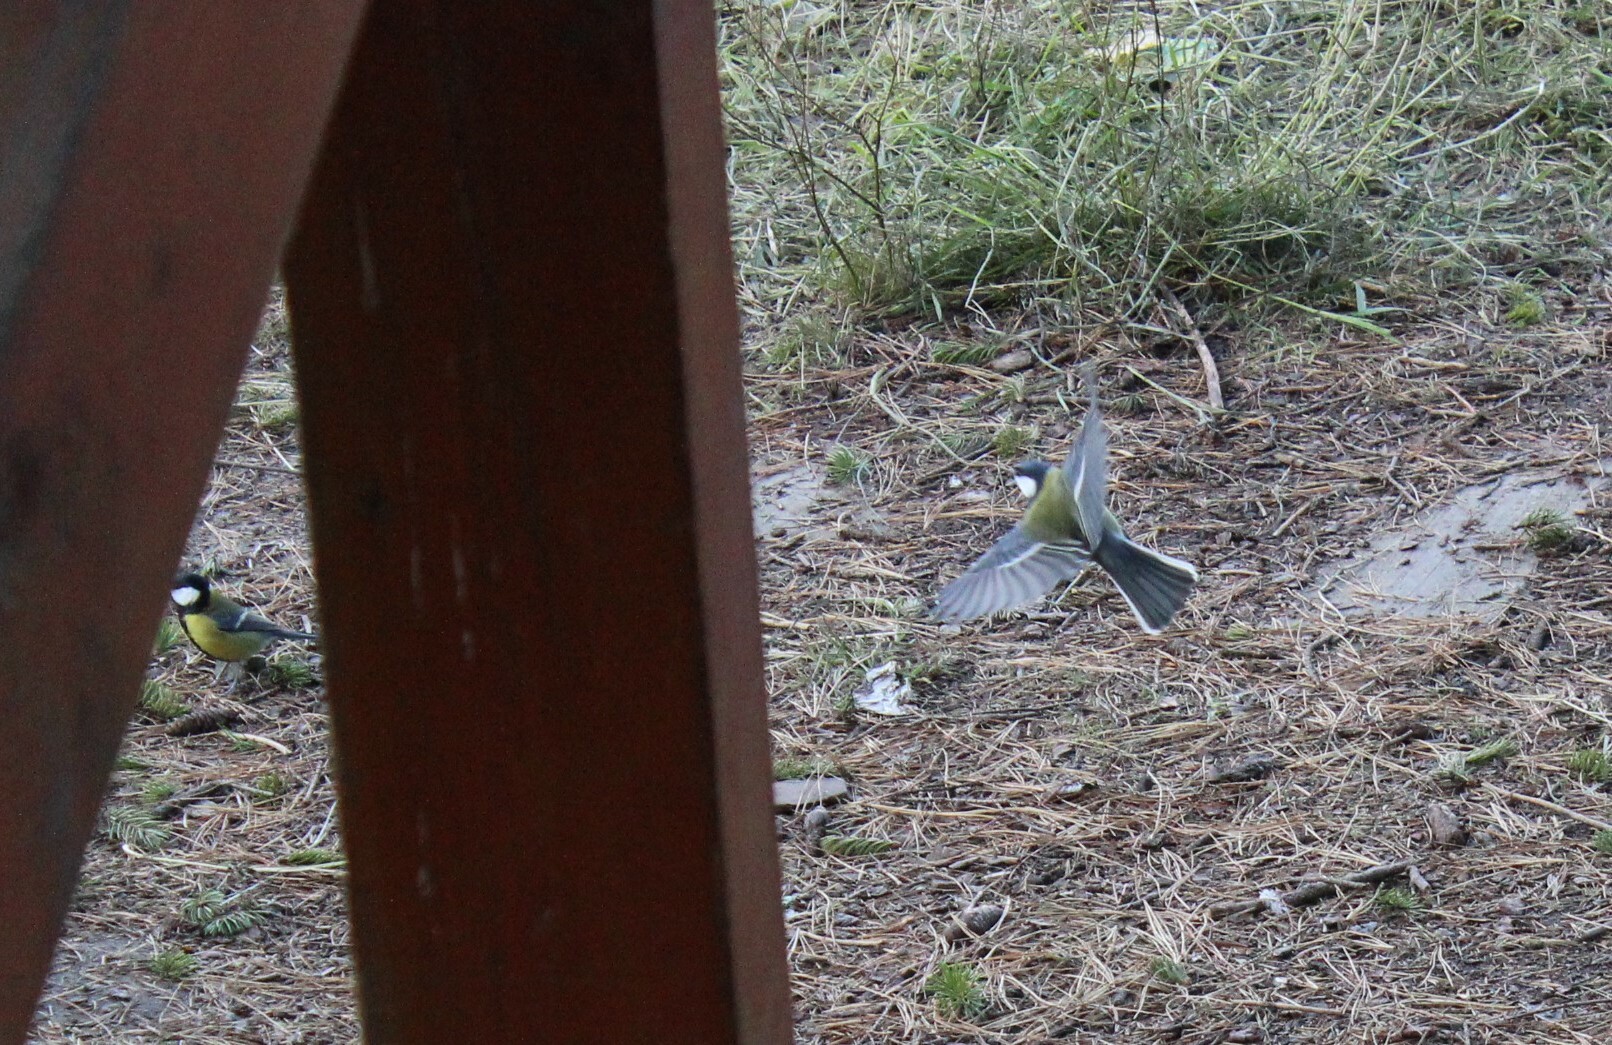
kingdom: Animalia
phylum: Chordata
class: Aves
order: Passeriformes
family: Paridae
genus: Parus
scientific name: Parus major
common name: Great tit
